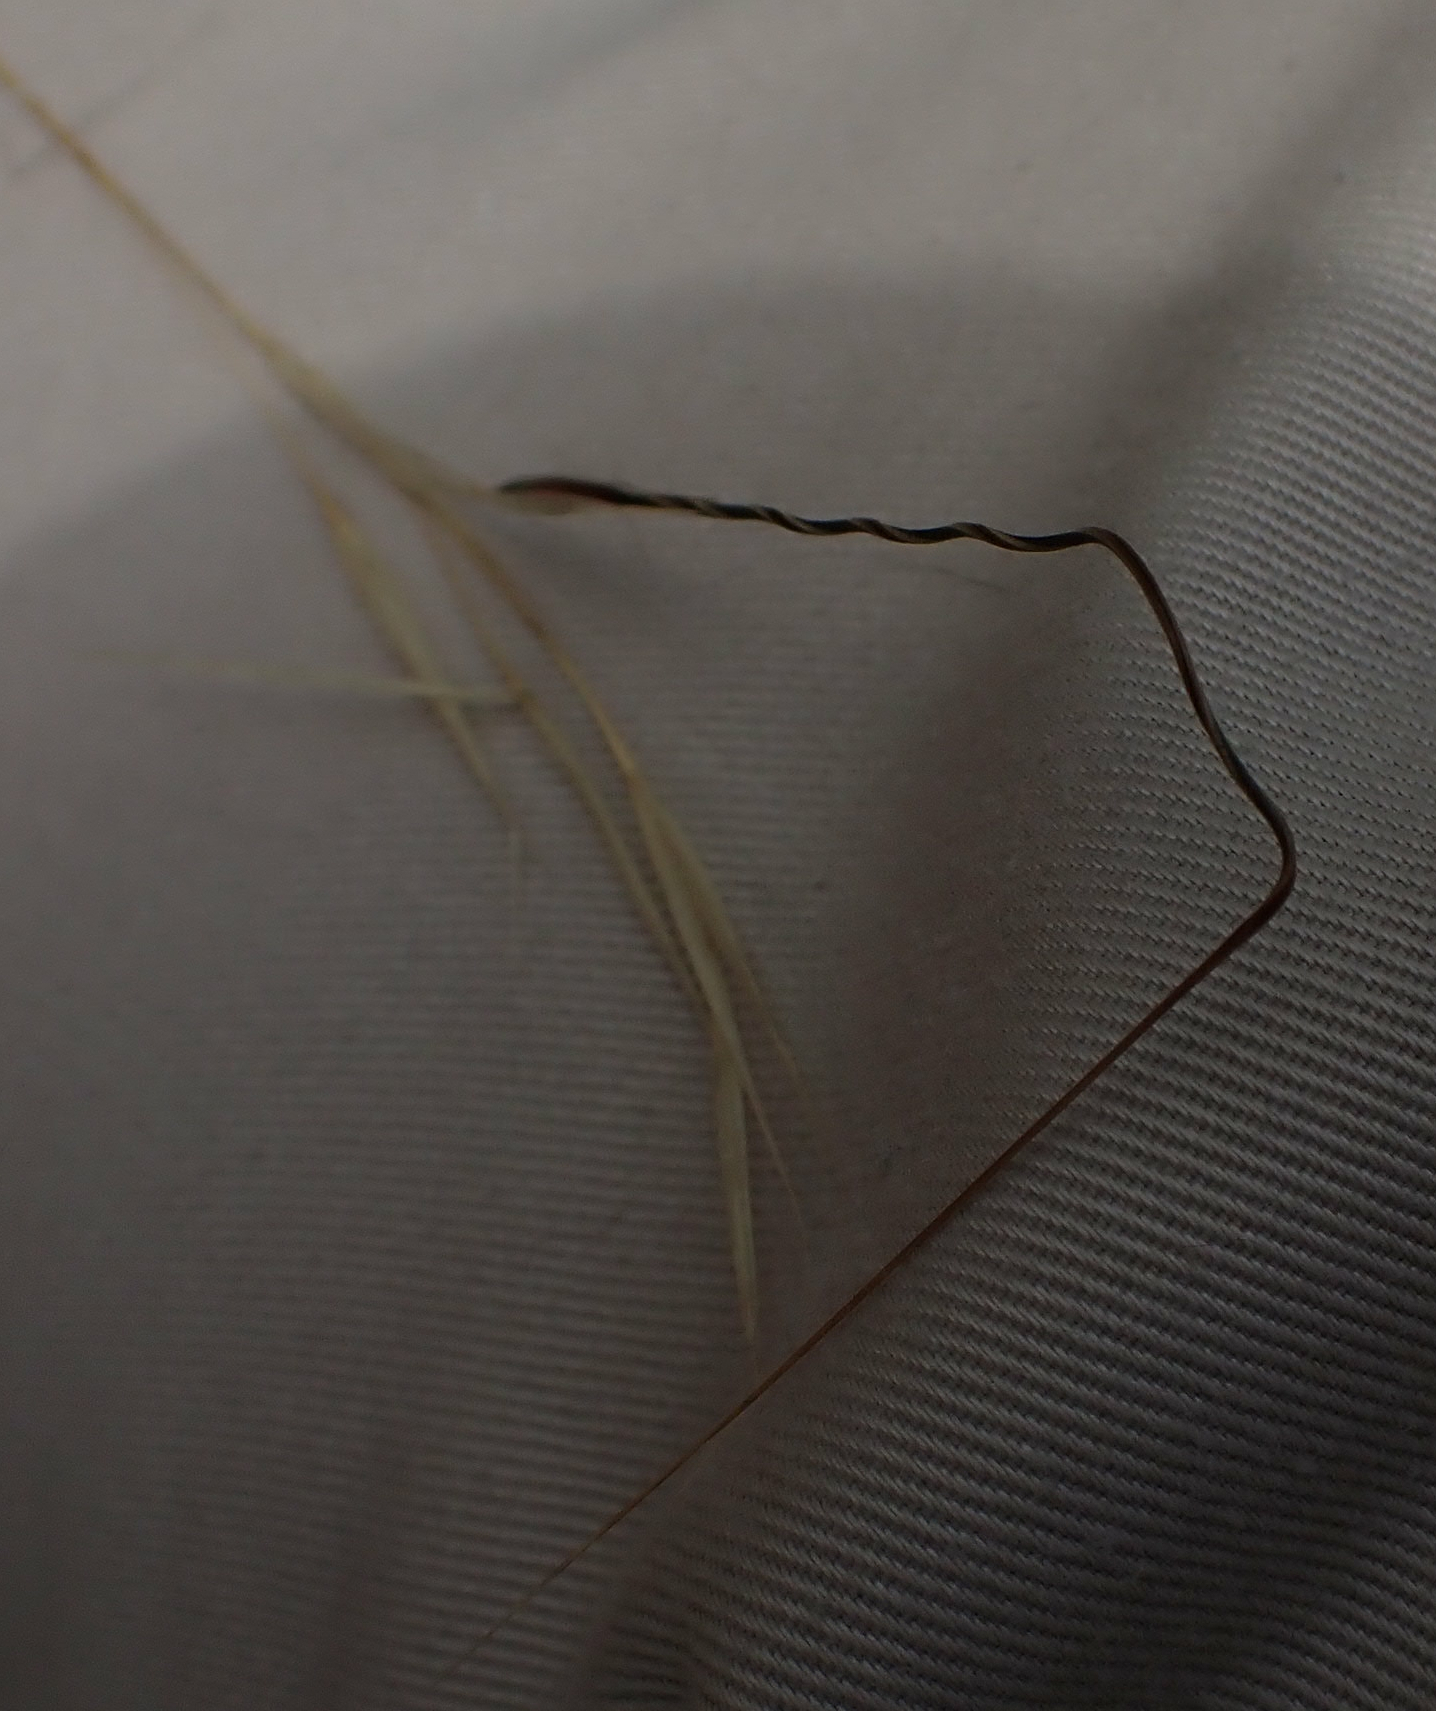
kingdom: Plantae
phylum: Tracheophyta
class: Liliopsida
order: Poales
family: Poaceae
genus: Hesperostipa
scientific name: Hesperostipa spartea
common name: Porcupine grass
